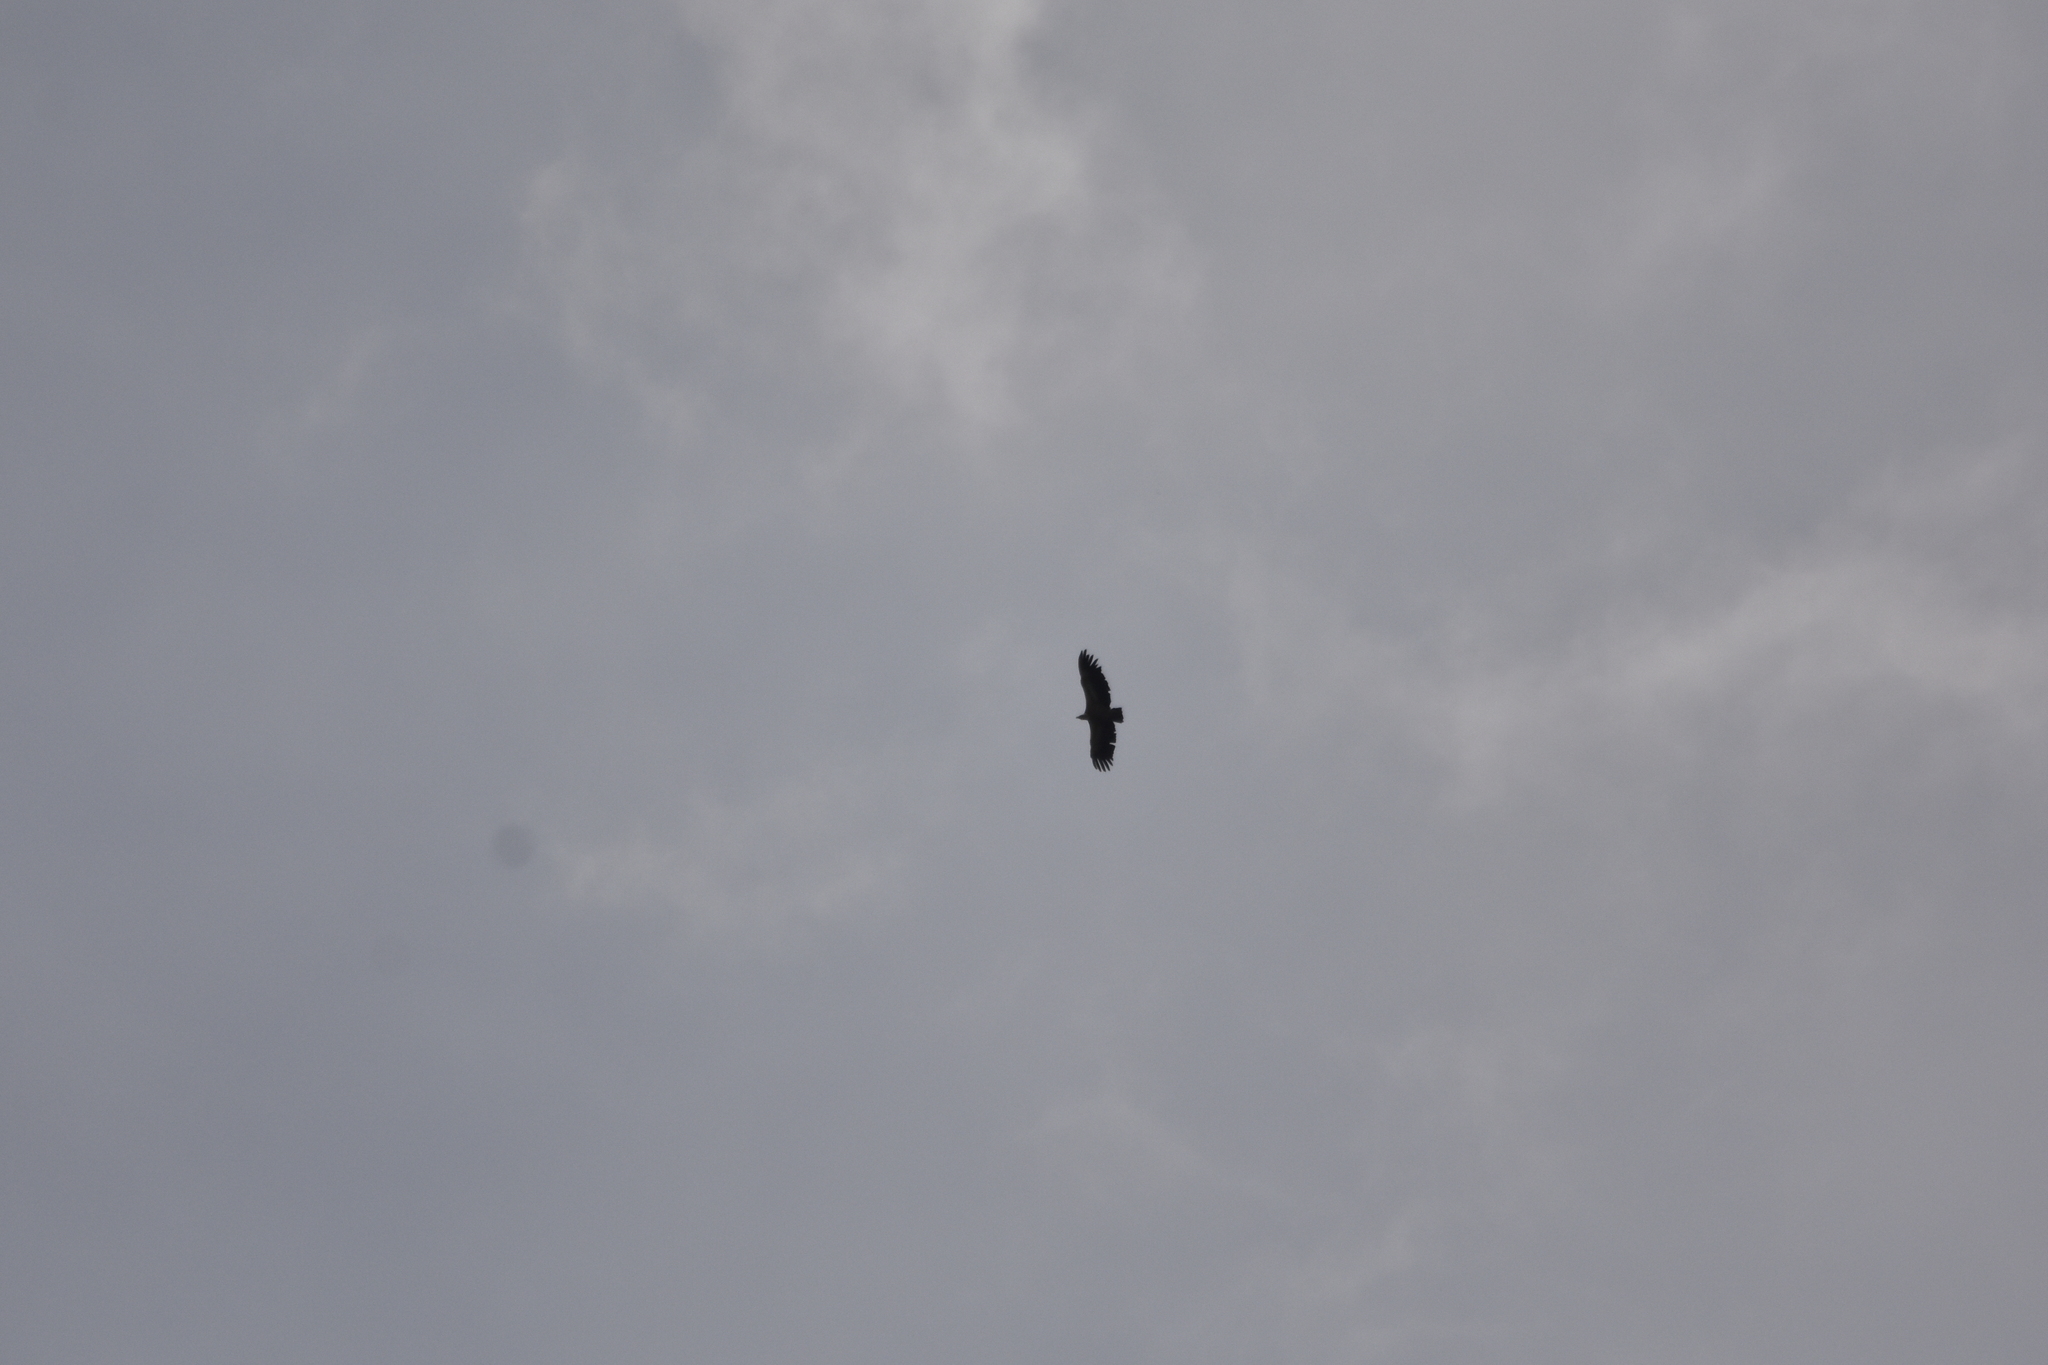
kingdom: Animalia
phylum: Chordata
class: Aves
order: Accipitriformes
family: Accipitridae
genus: Gyps
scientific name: Gyps fulvus
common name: Griffon vulture
